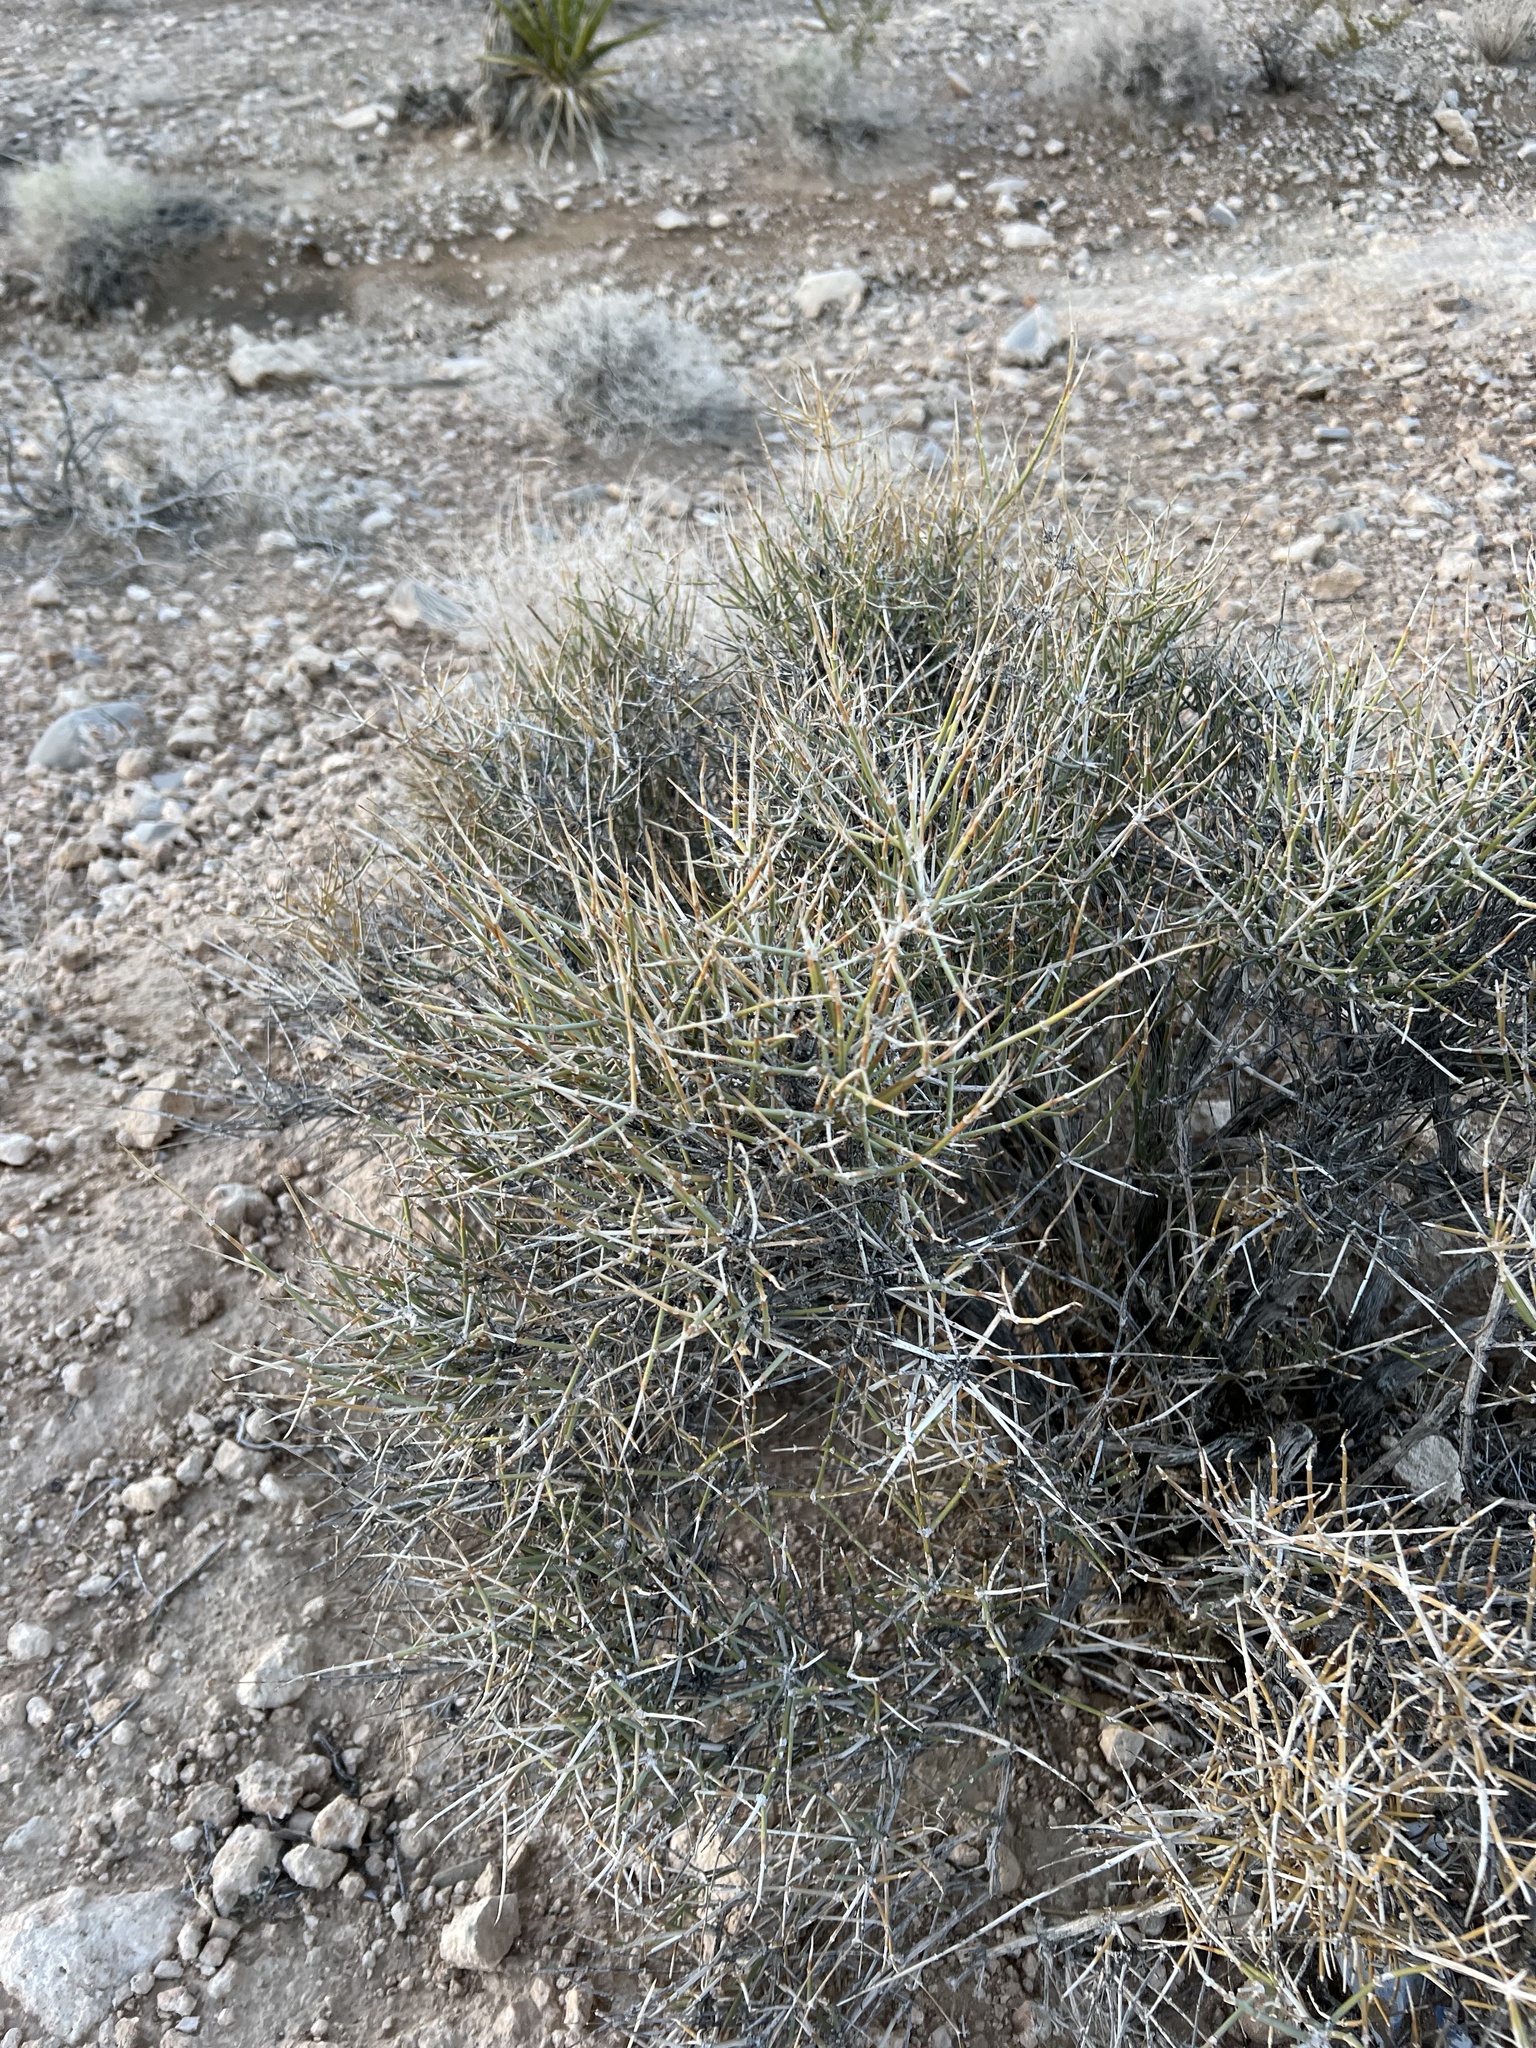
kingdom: Plantae
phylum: Tracheophyta
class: Gnetopsida
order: Ephedrales
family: Ephedraceae
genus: Ephedra
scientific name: Ephedra nevadensis
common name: Gray ephedra
